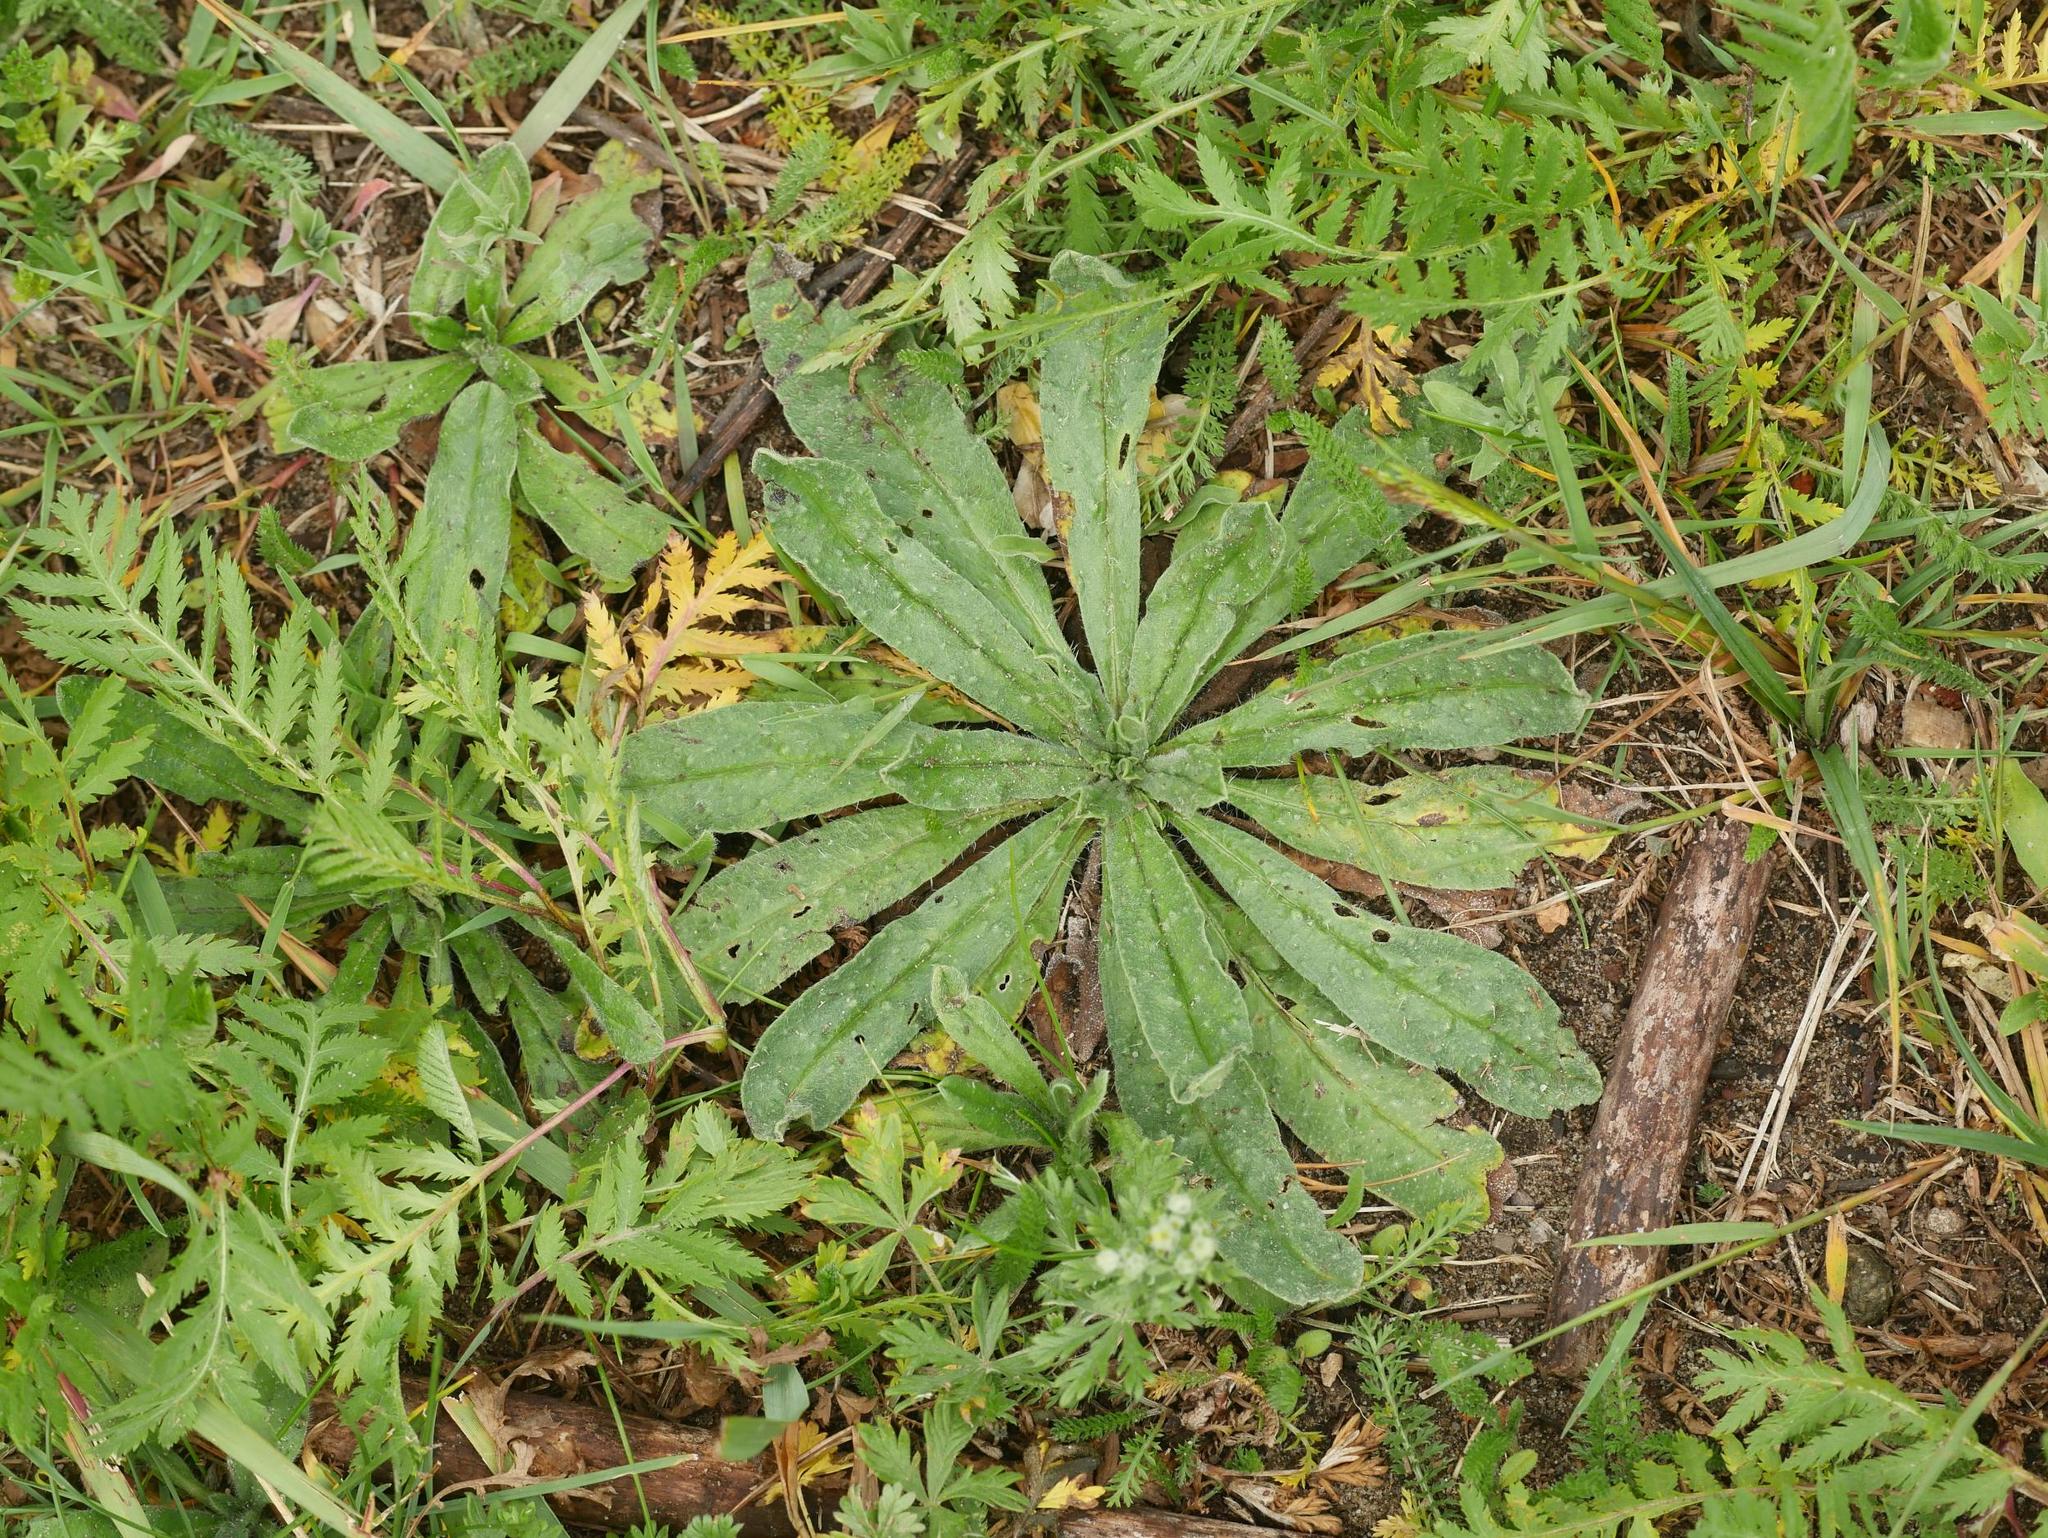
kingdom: Plantae
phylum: Tracheophyta
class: Magnoliopsida
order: Boraginales
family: Boraginaceae
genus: Echium
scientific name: Echium vulgare
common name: Common viper's bugloss
